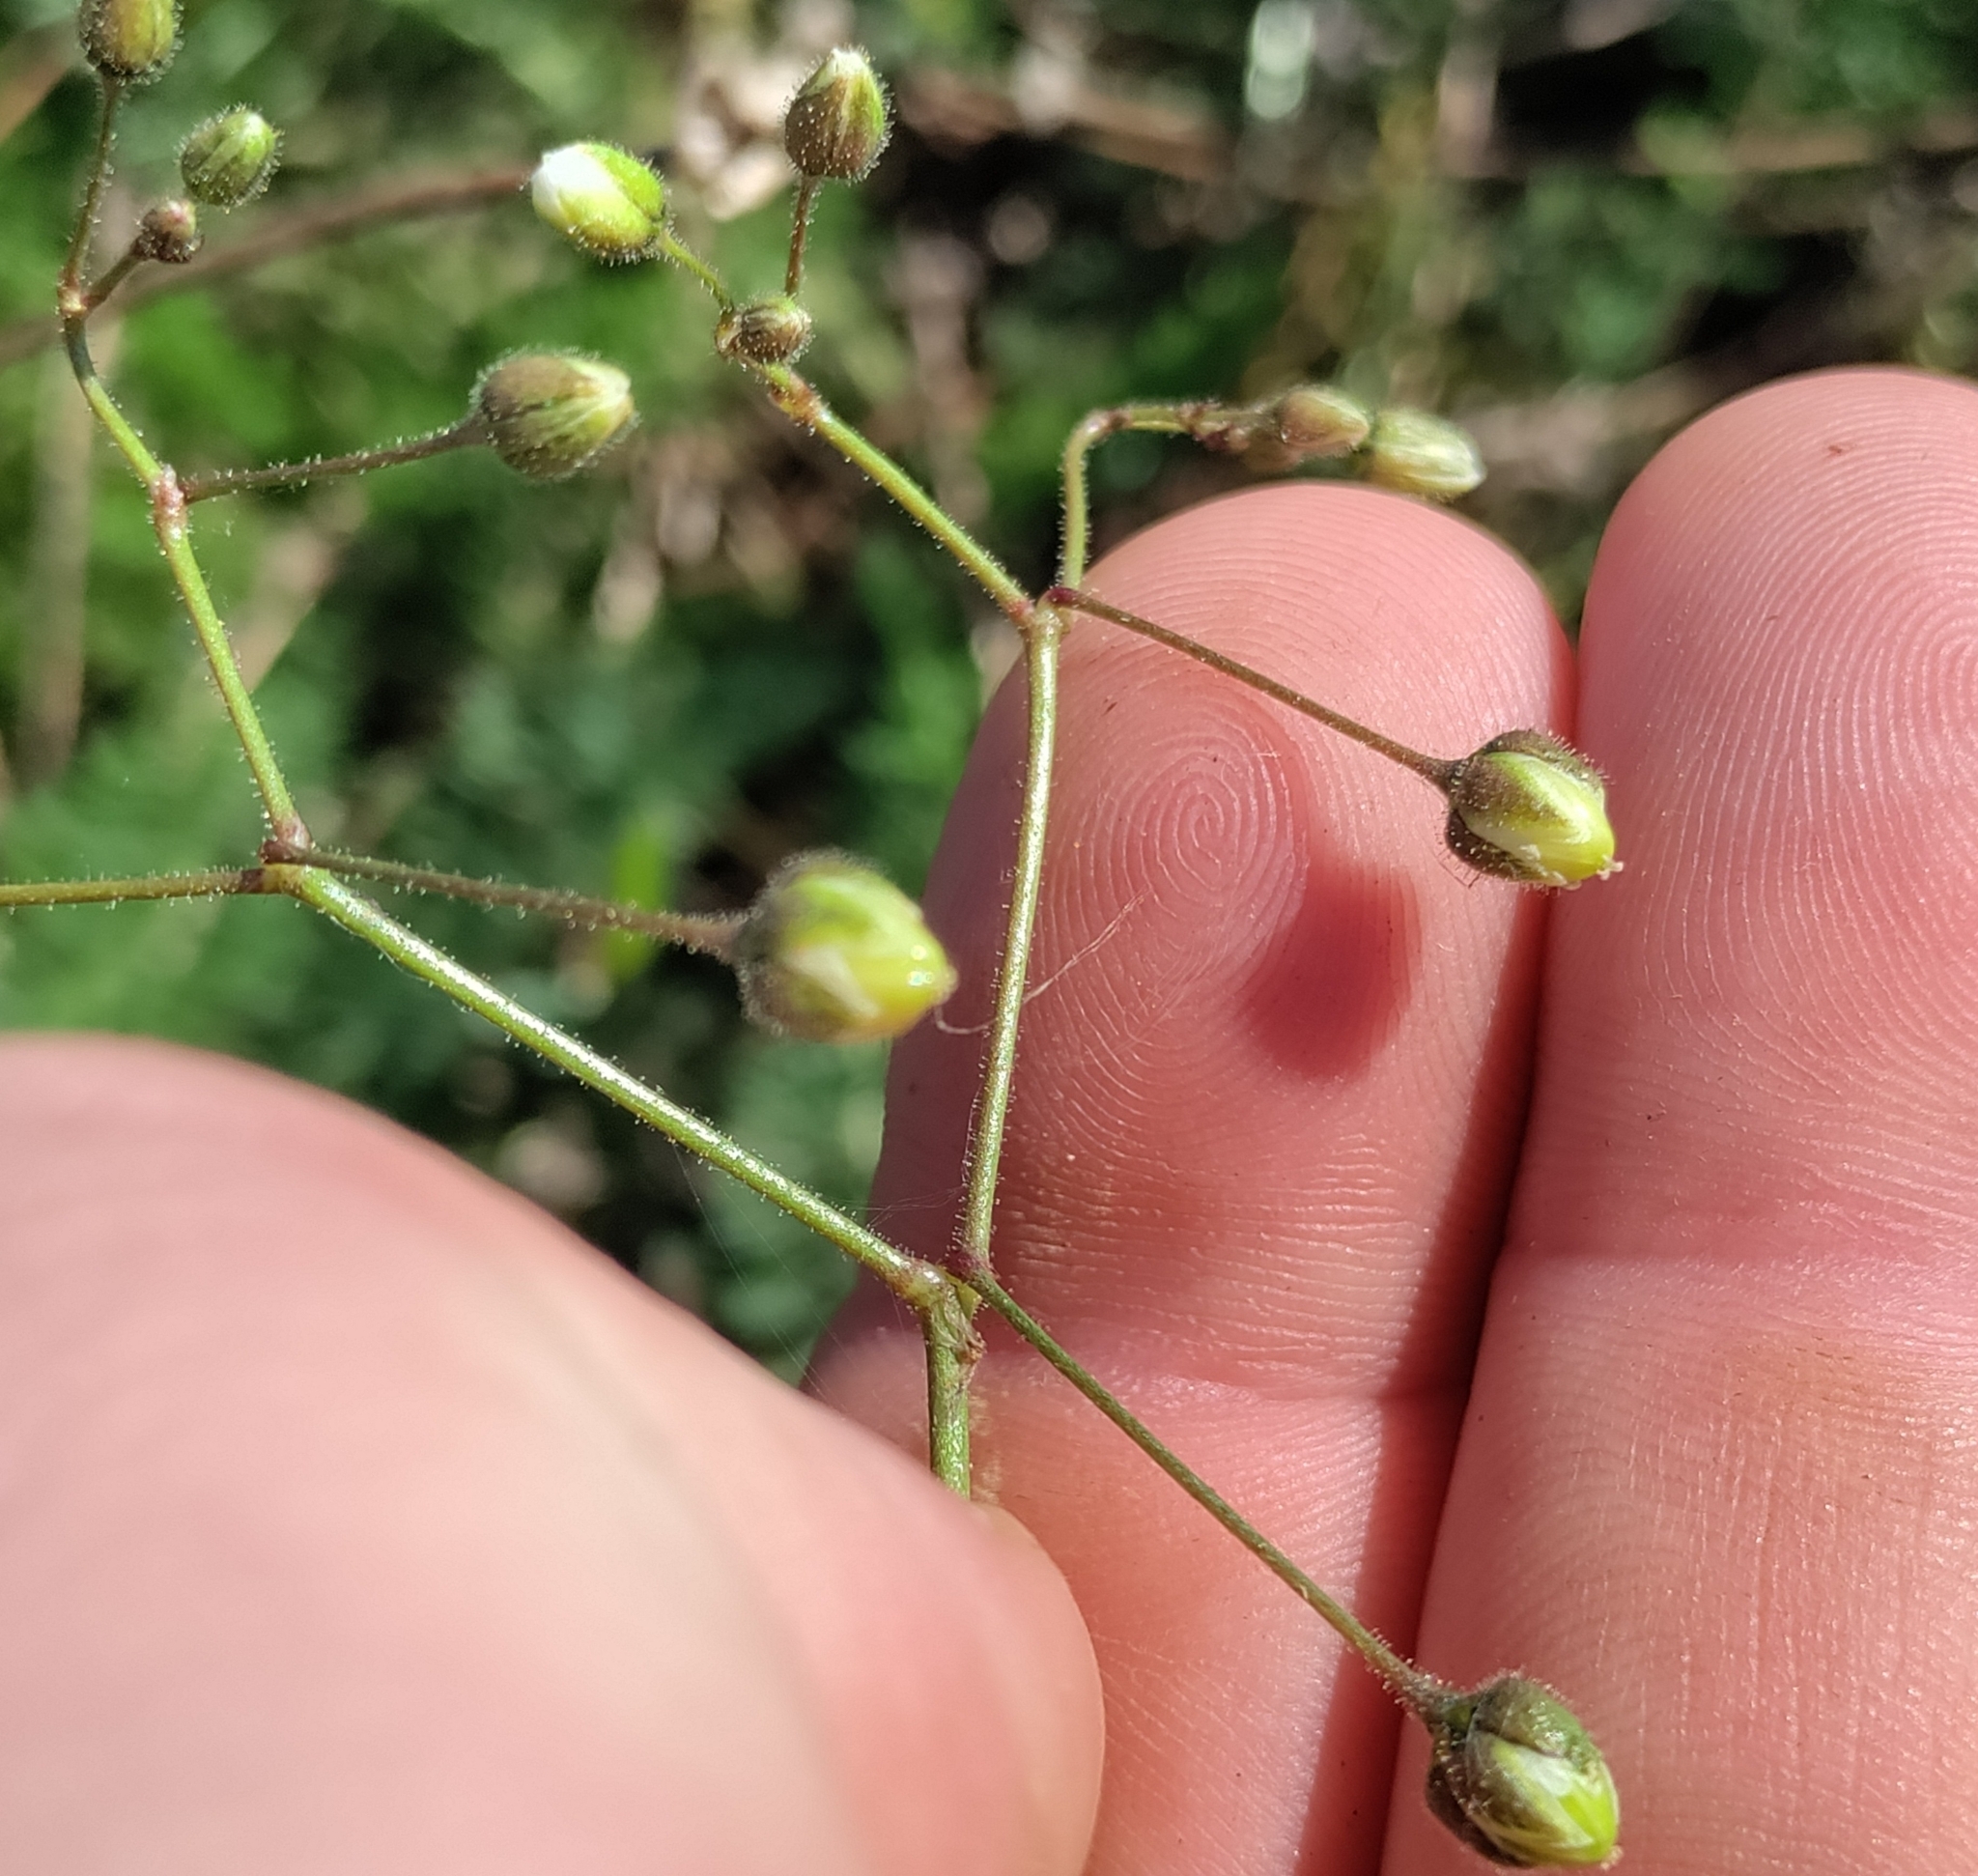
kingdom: Plantae
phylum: Tracheophyta
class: Magnoliopsida
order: Caryophyllales
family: Caryophyllaceae
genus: Spergula
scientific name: Spergula arvensis
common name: Corn spurrey
